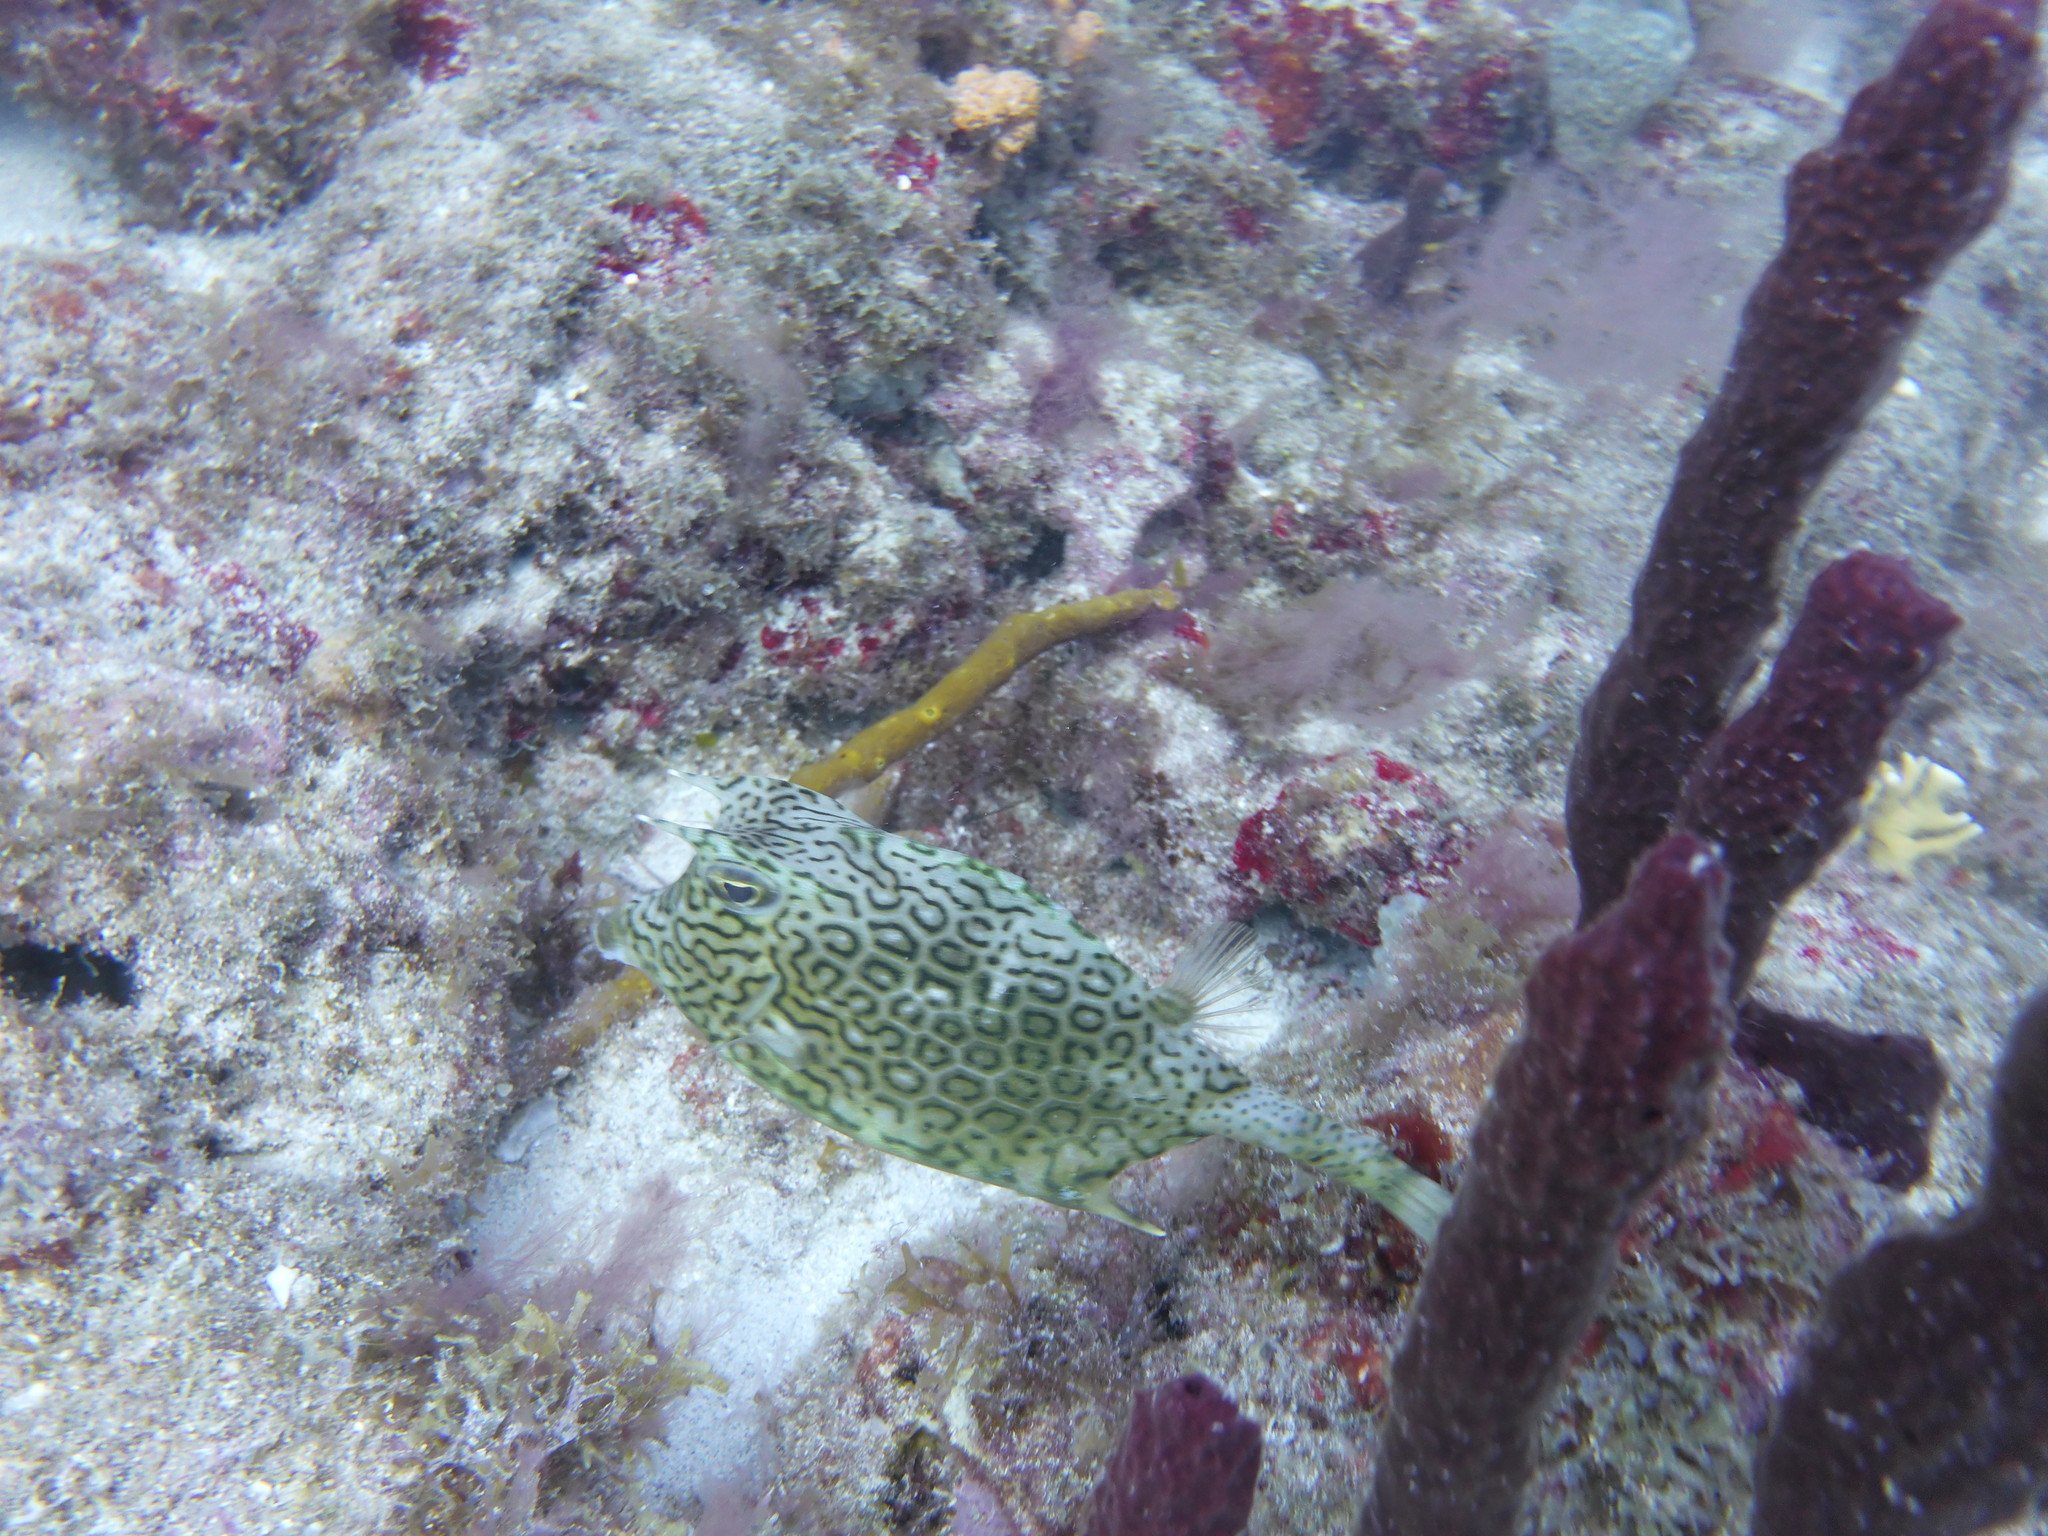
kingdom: Animalia
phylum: Chordata
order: Tetraodontiformes
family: Ostraciidae
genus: Acanthostracion
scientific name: Acanthostracion polygonius
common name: Honeycomb cowfish
